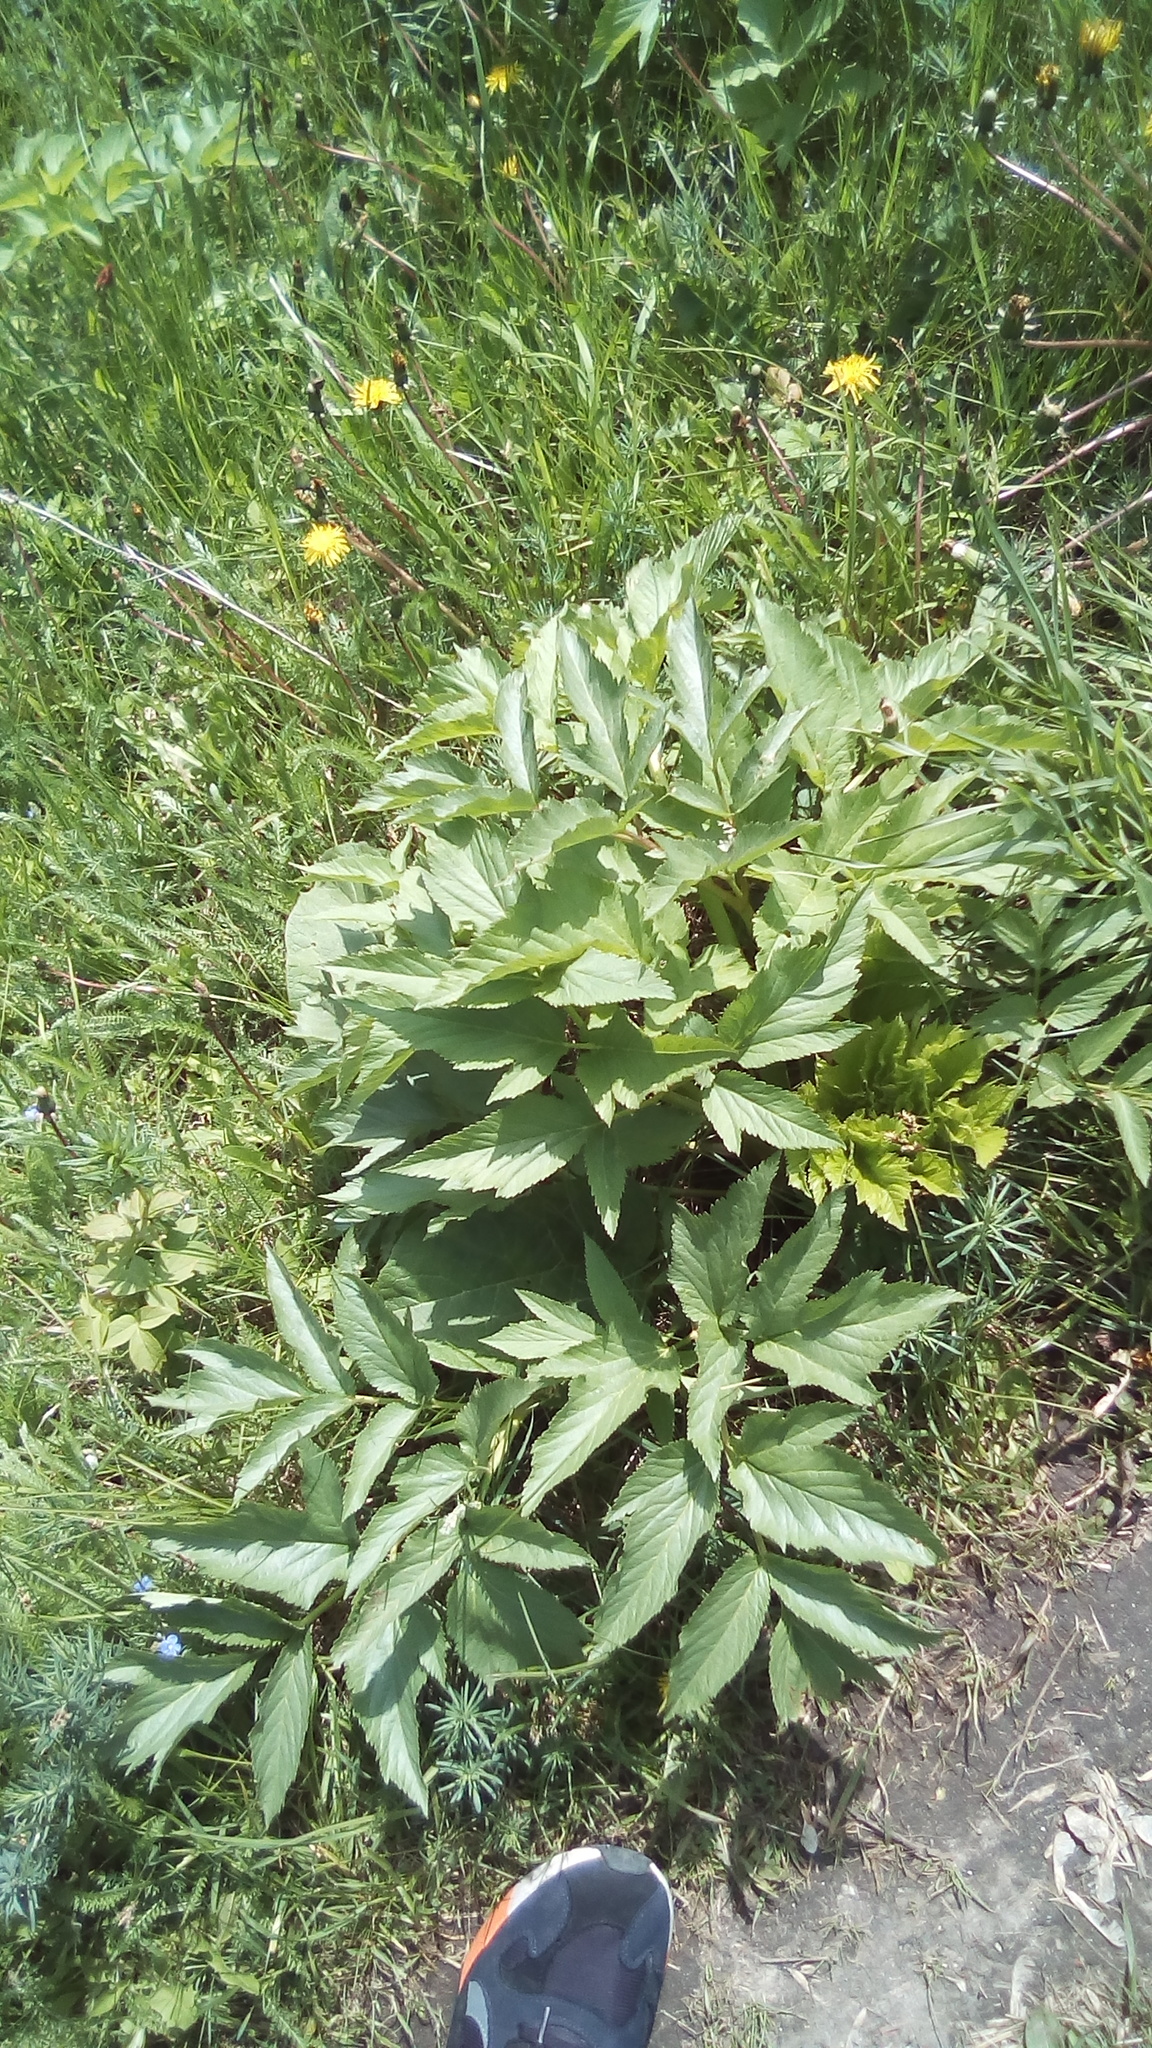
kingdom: Plantae
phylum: Tracheophyta
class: Magnoliopsida
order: Apiales
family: Apiaceae
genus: Angelica
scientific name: Angelica archangelica
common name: Garden angelica
